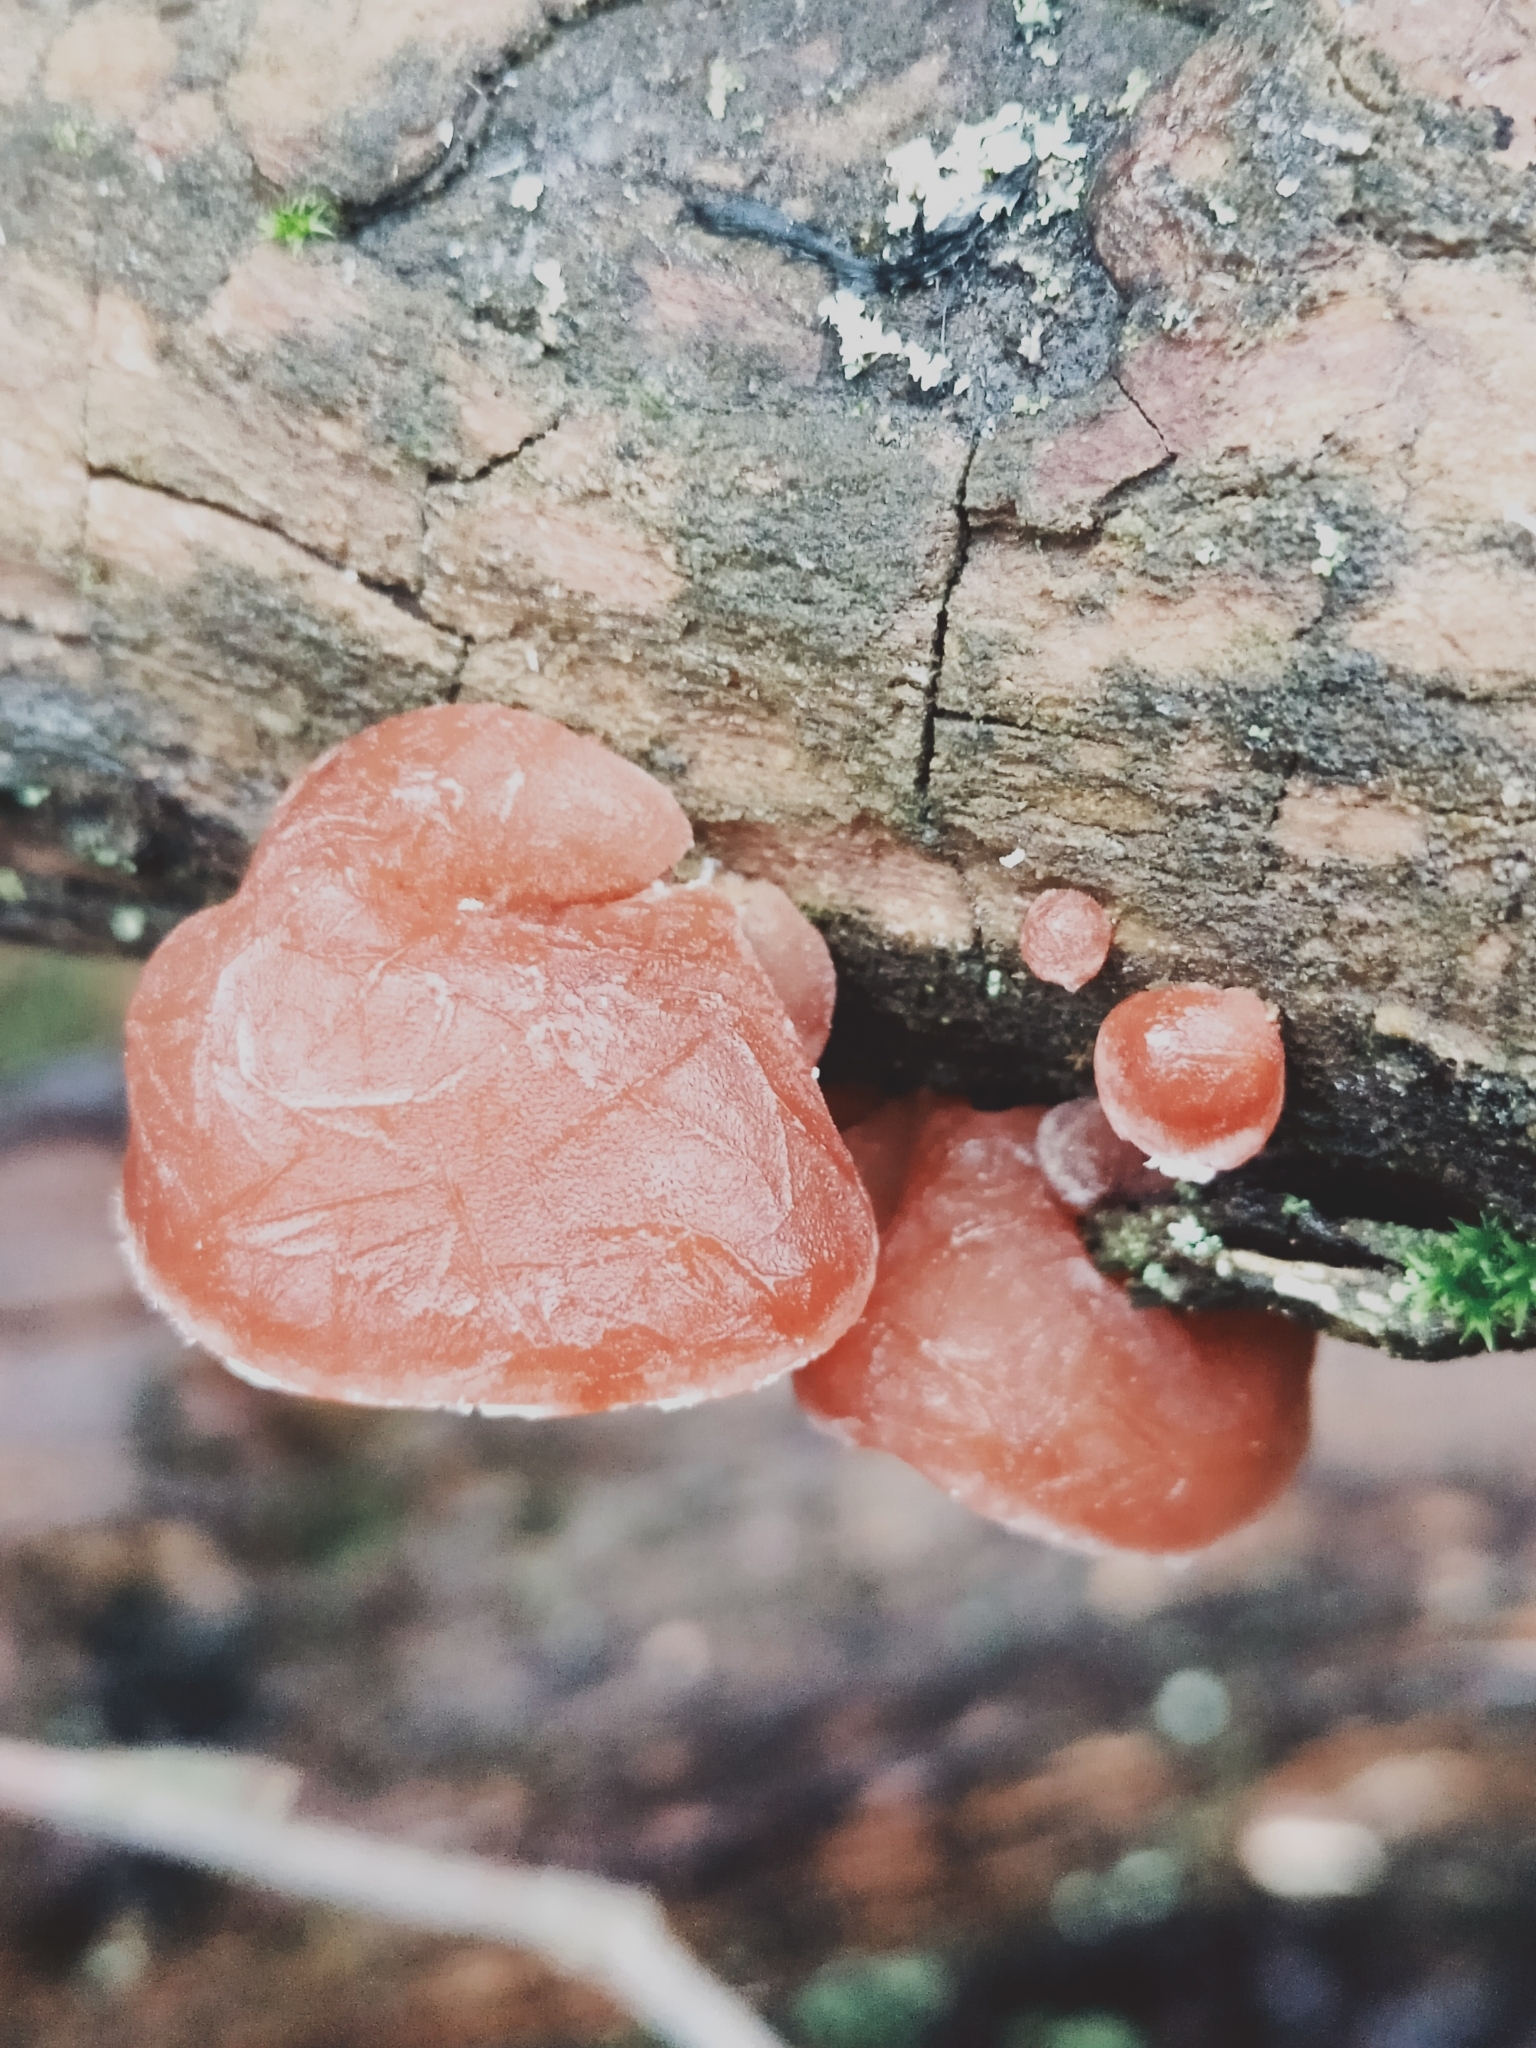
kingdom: Fungi
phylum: Basidiomycota
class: Agaricomycetes
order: Auriculariales
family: Auriculariaceae
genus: Auricularia
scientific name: Auricularia auricula-judae
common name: Jelly ear
